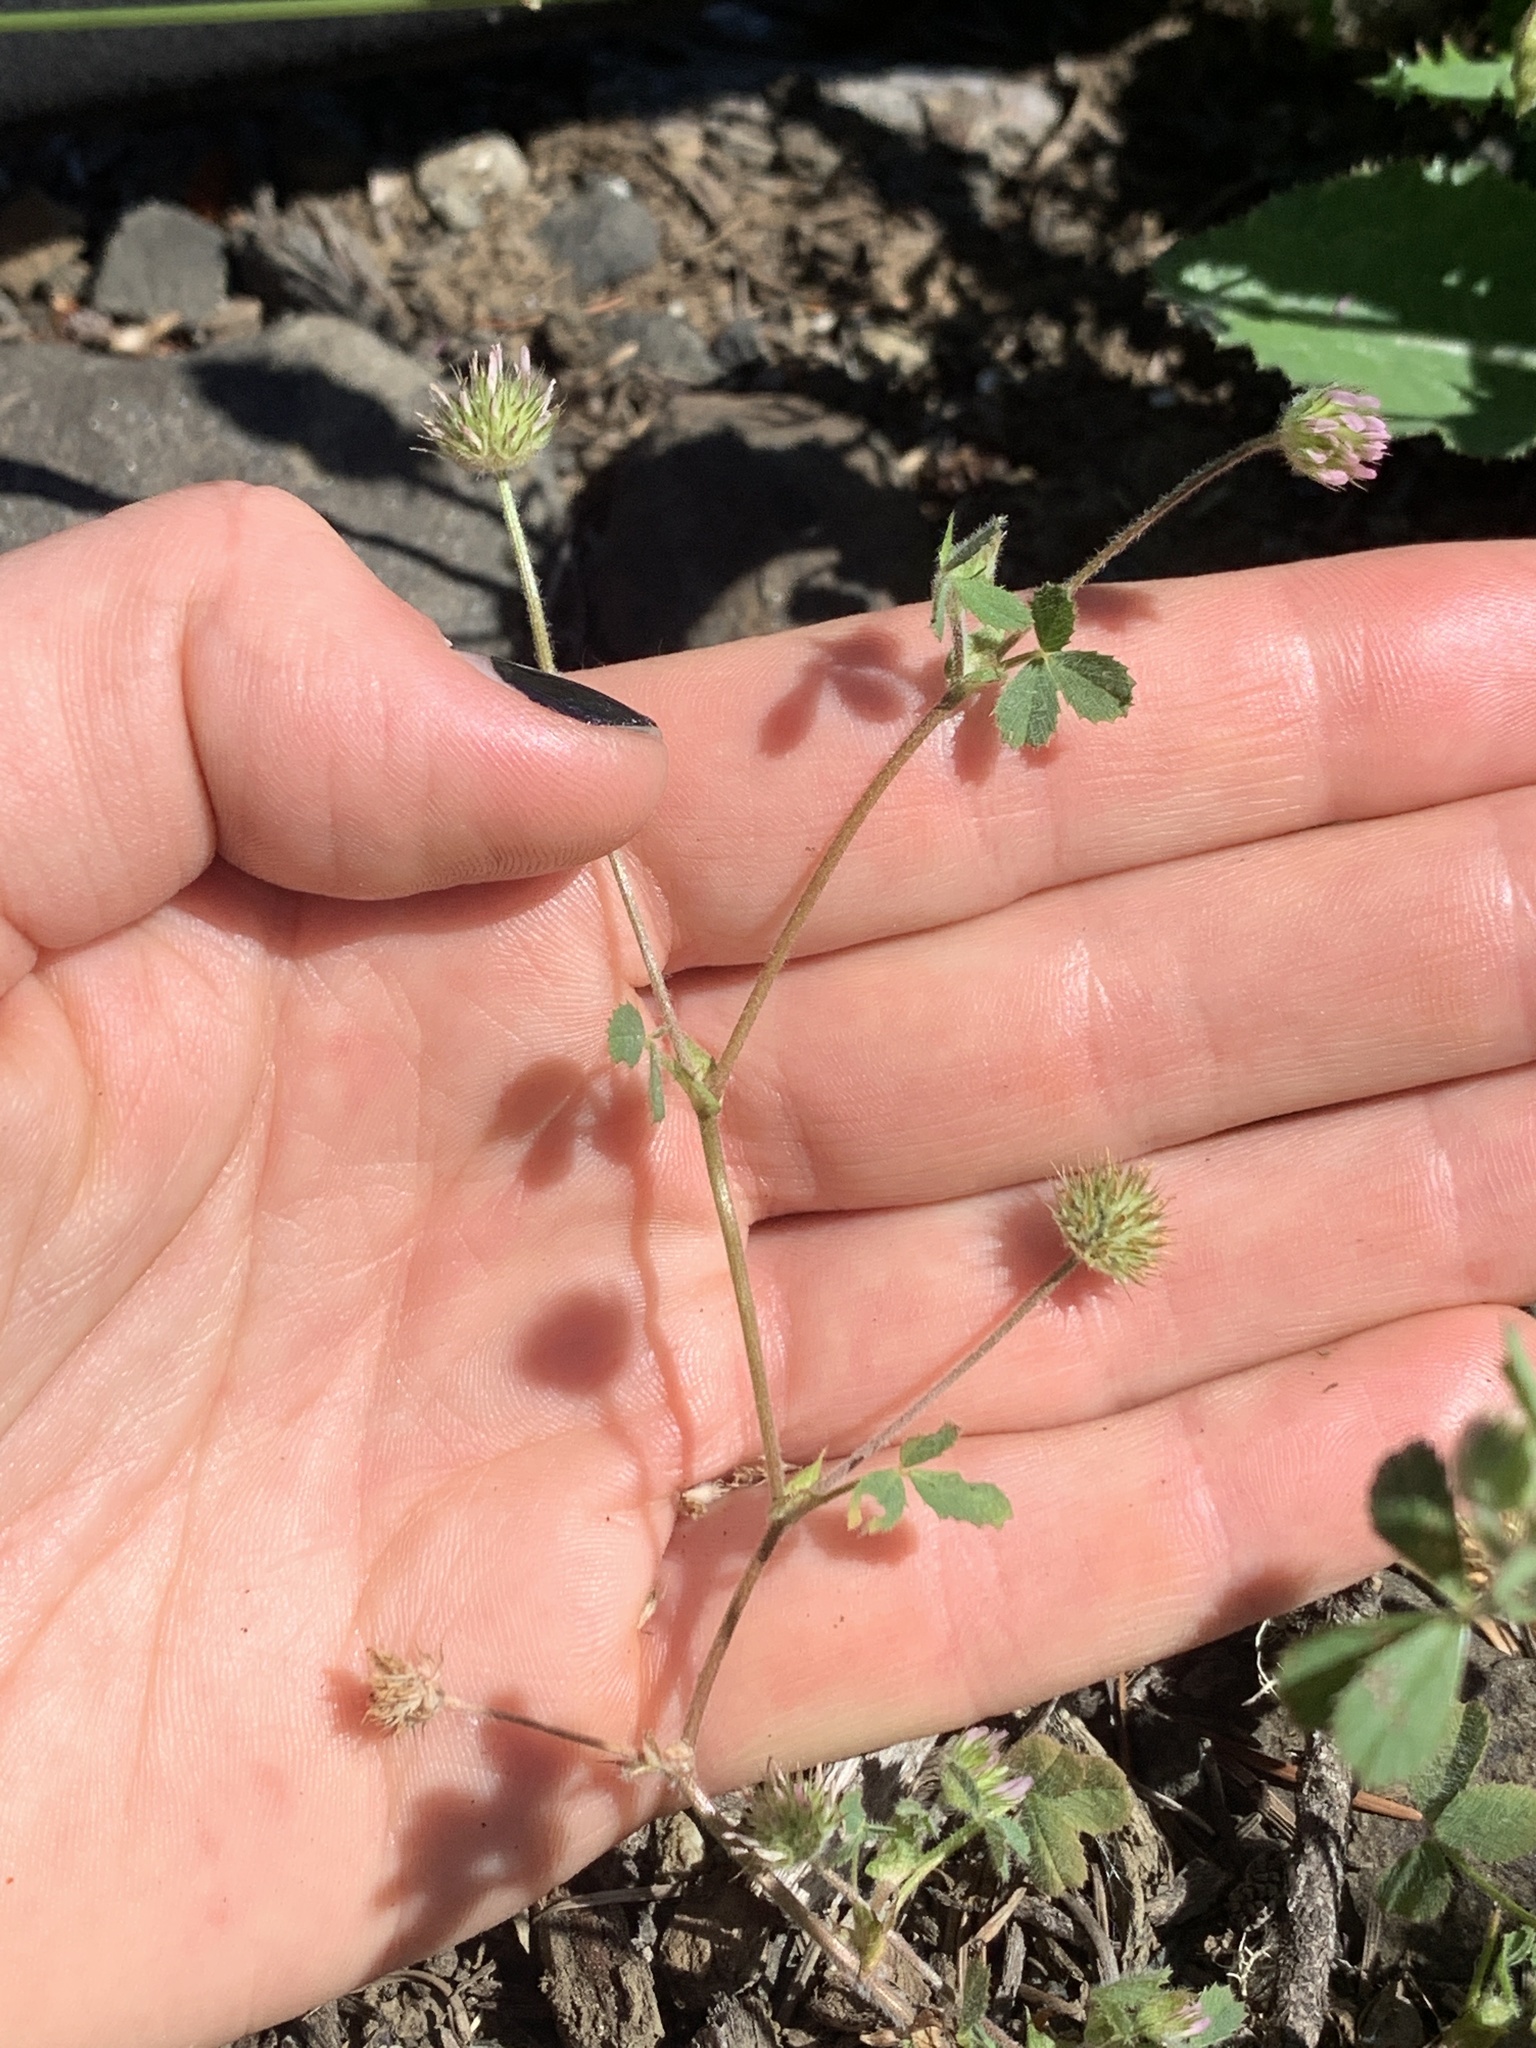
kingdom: Plantae
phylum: Tracheophyta
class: Magnoliopsida
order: Fabales
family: Fabaceae
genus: Trifolium
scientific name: Trifolium microcephalum
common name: Maiden clover
